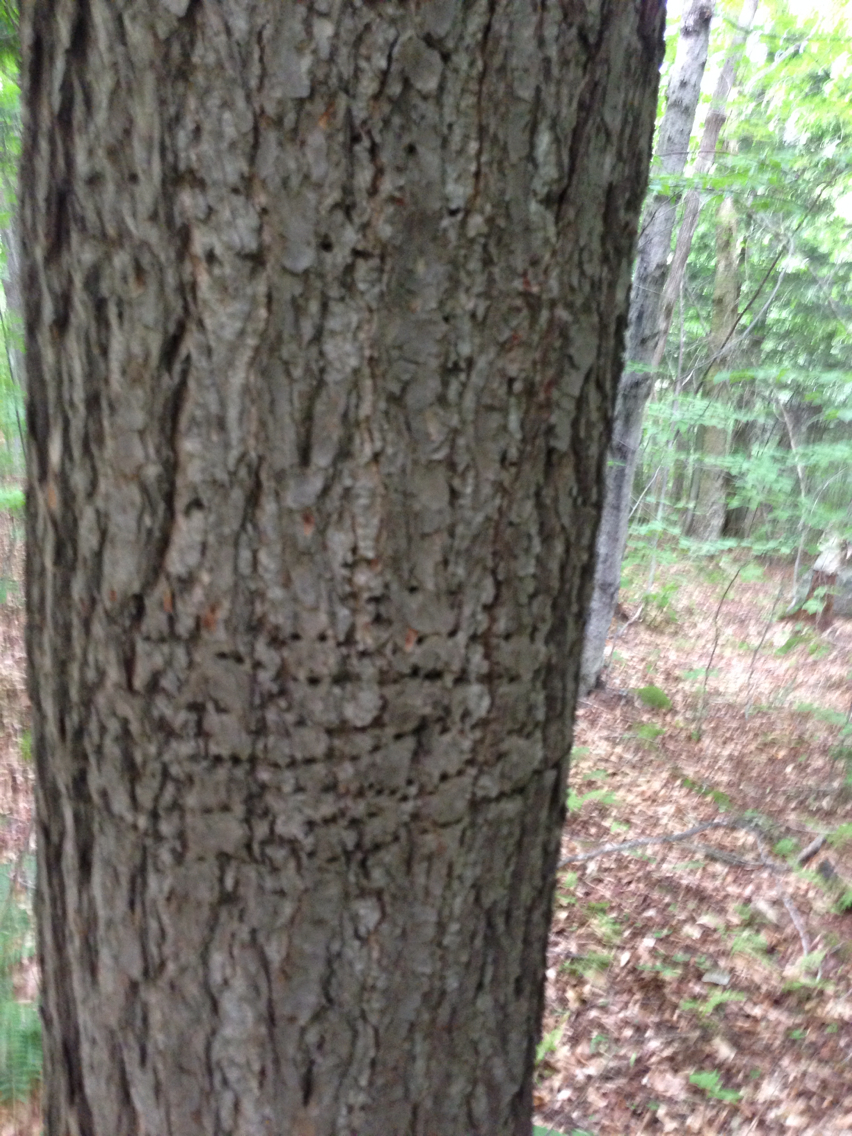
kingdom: Plantae
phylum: Tracheophyta
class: Pinopsida
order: Pinales
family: Pinaceae
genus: Tsuga
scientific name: Tsuga canadensis
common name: Eastern hemlock
